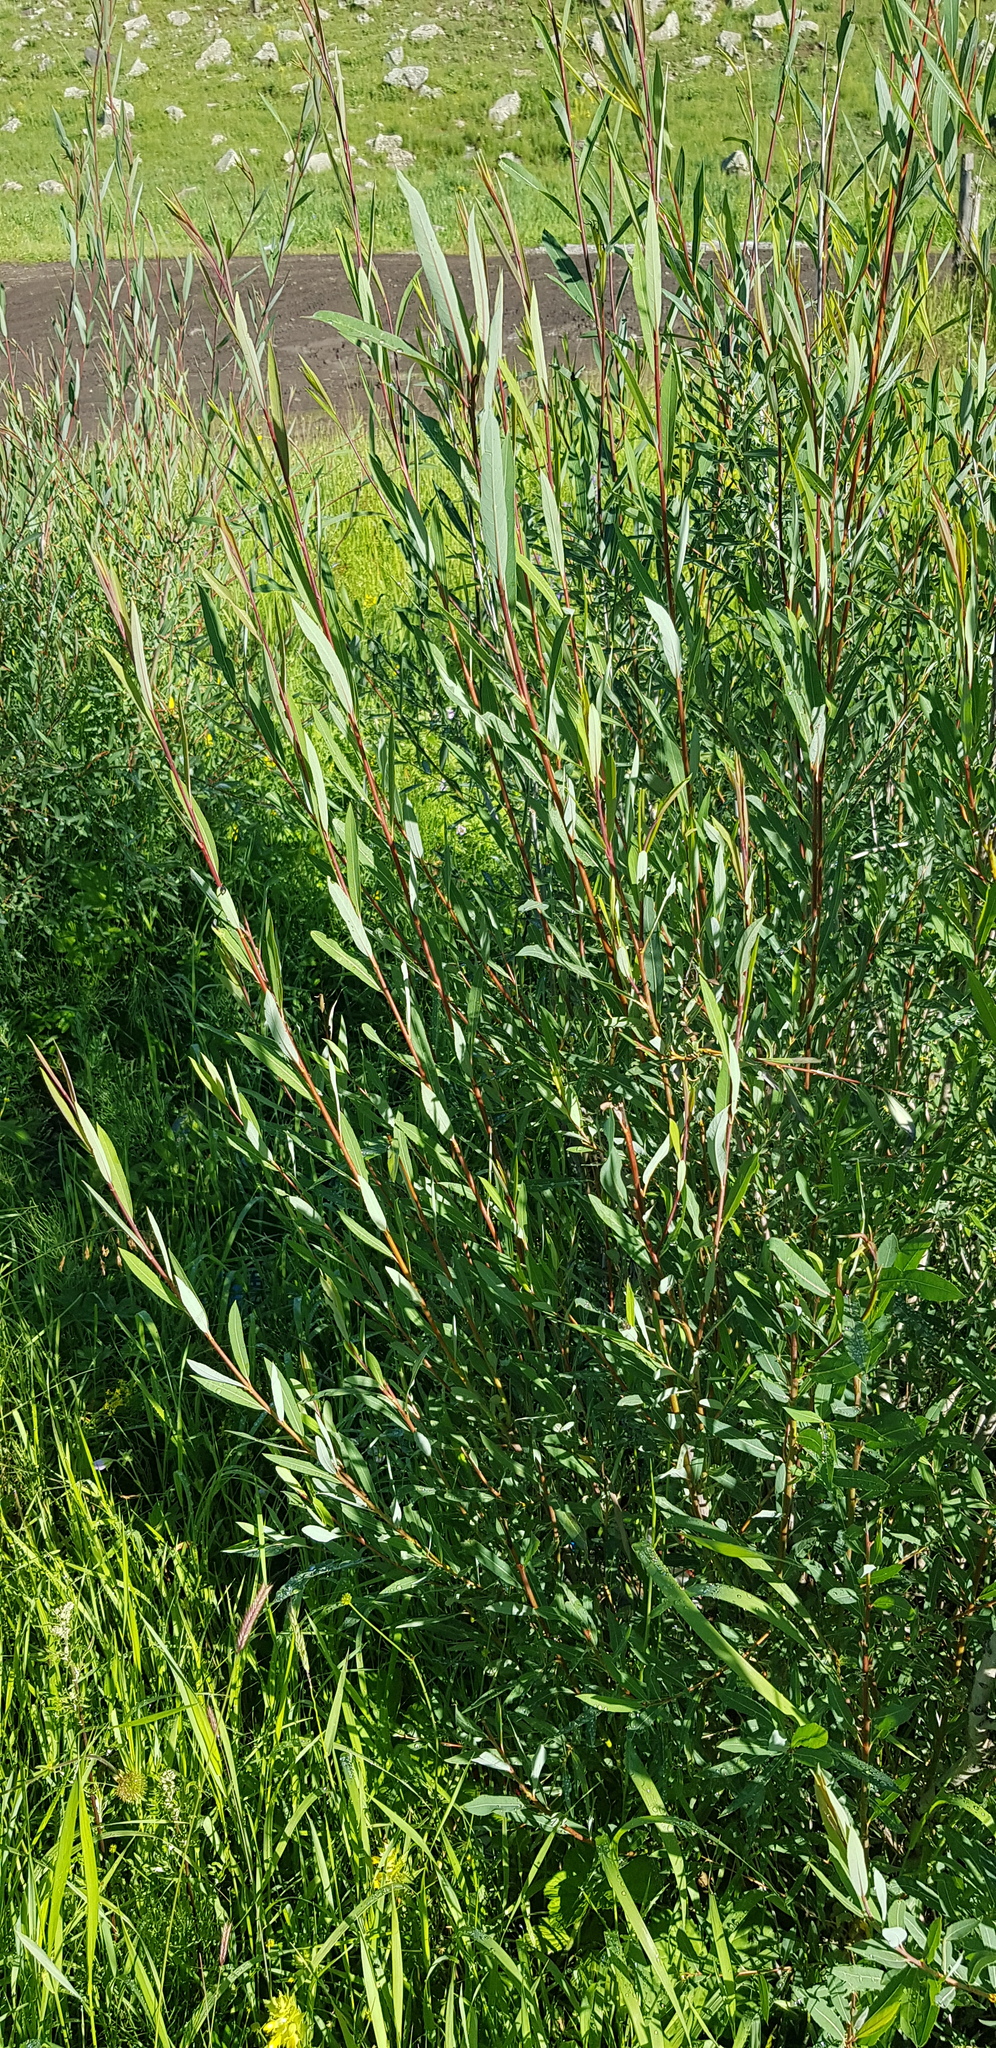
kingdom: Plantae
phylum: Tracheophyta
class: Magnoliopsida
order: Malpighiales
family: Salicaceae
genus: Salix
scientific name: Salix purpurea
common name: Purple willow
